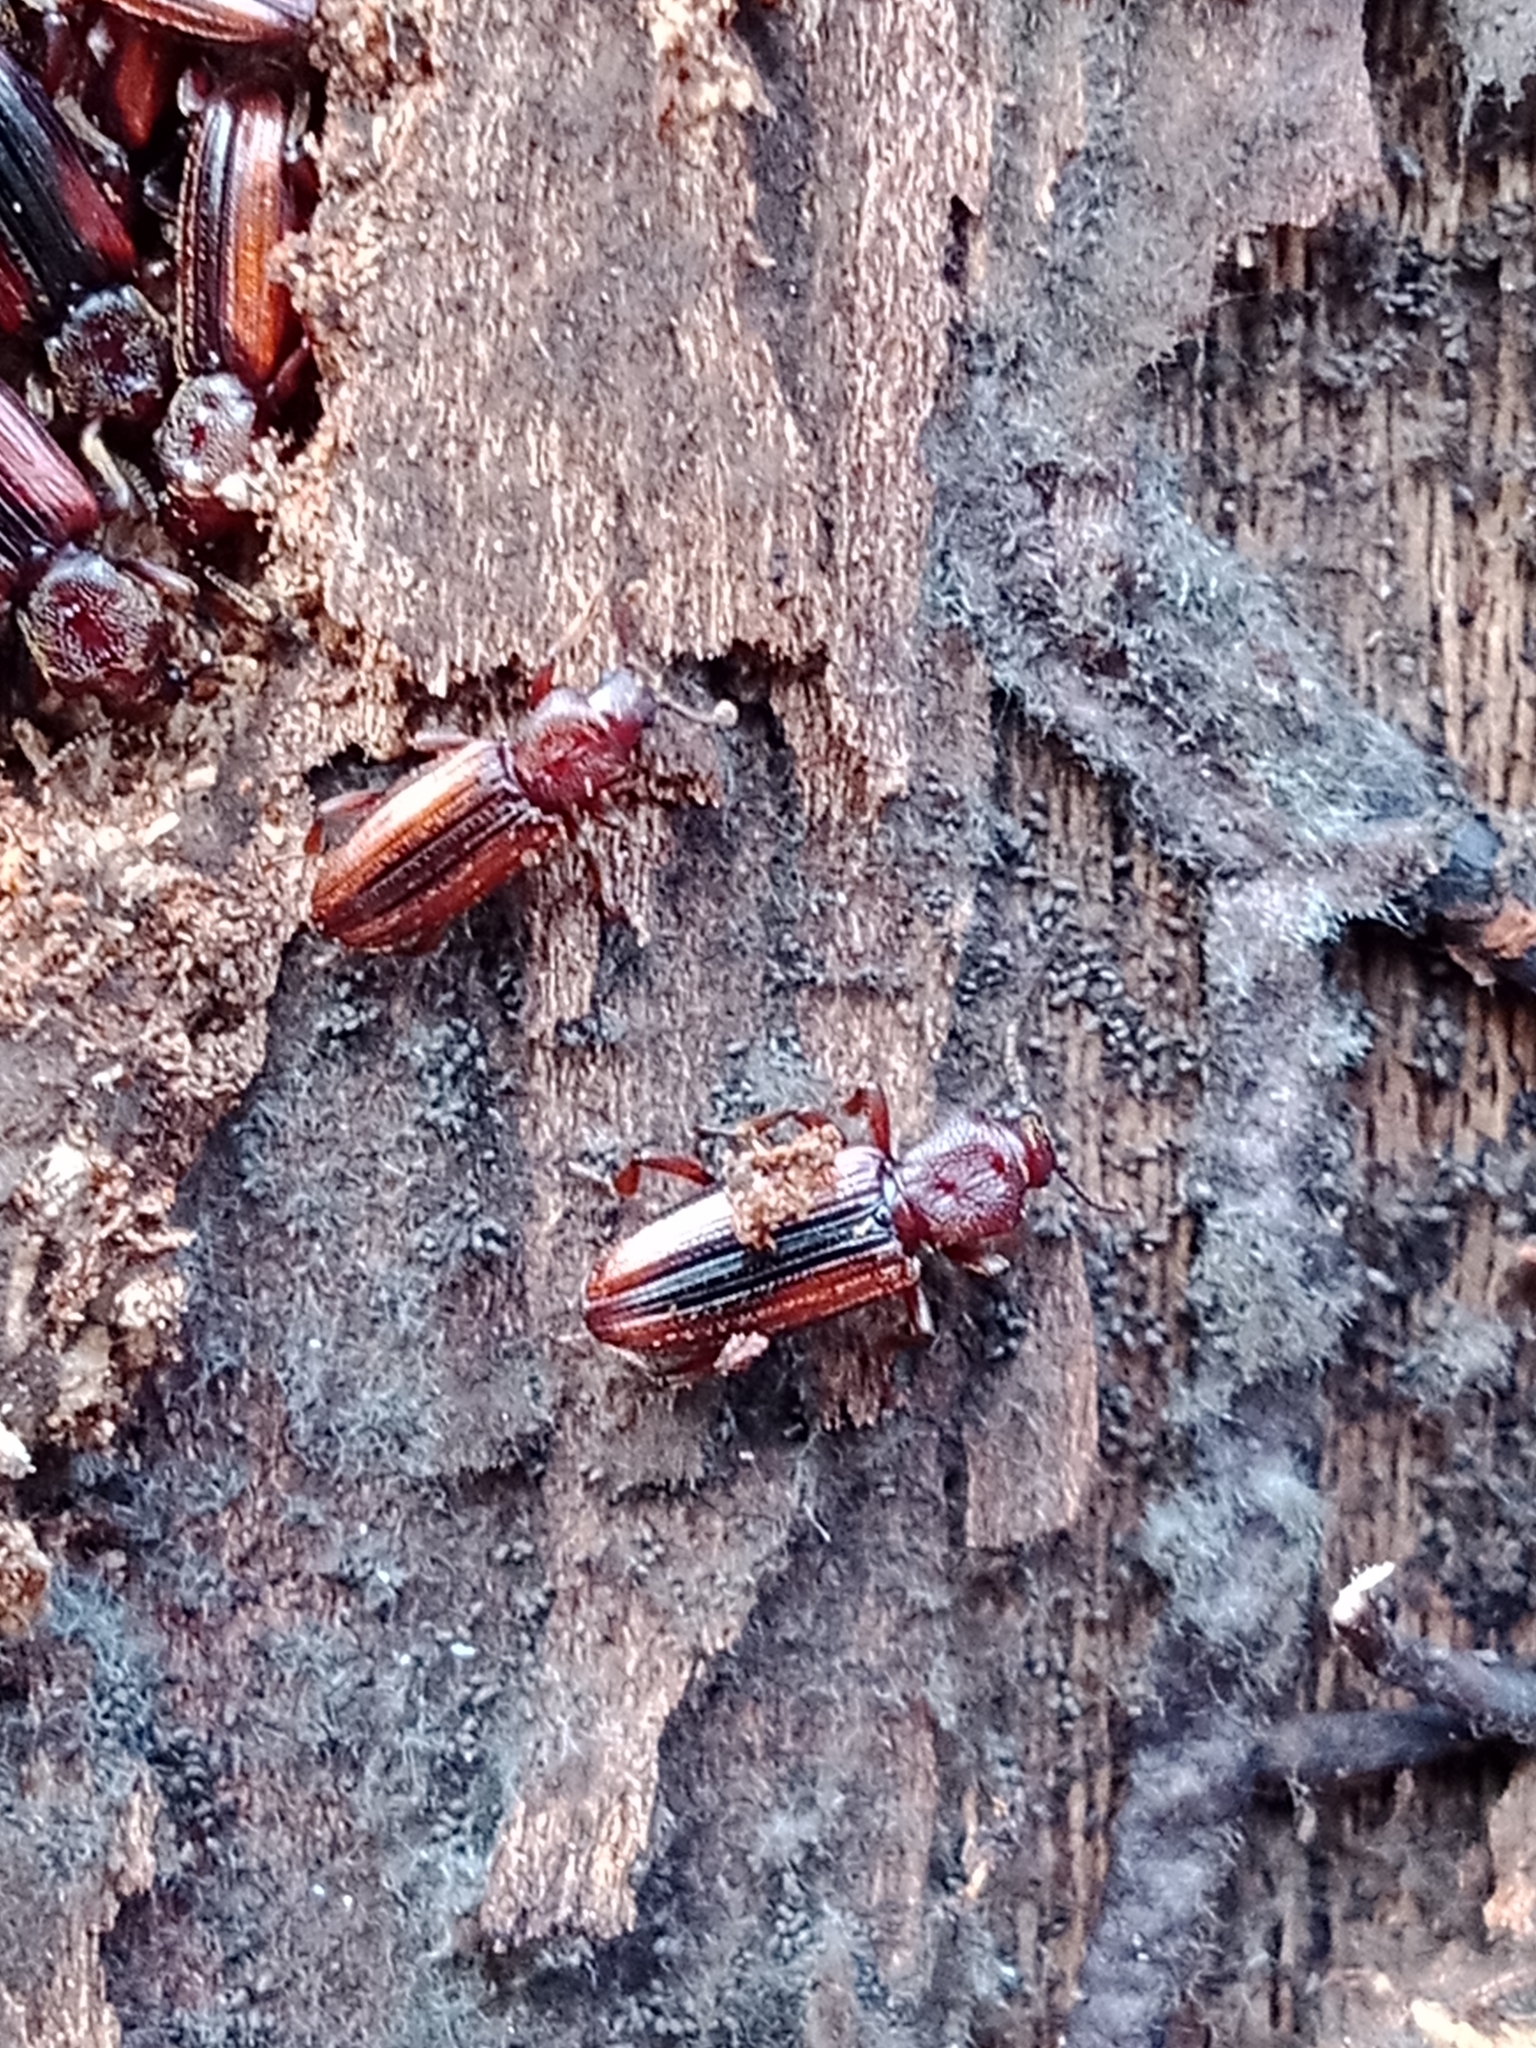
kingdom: Animalia
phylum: Arthropoda
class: Insecta
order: Coleoptera
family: Bothrideridae
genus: Bothrideres
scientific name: Bothrideres bipunctatus
